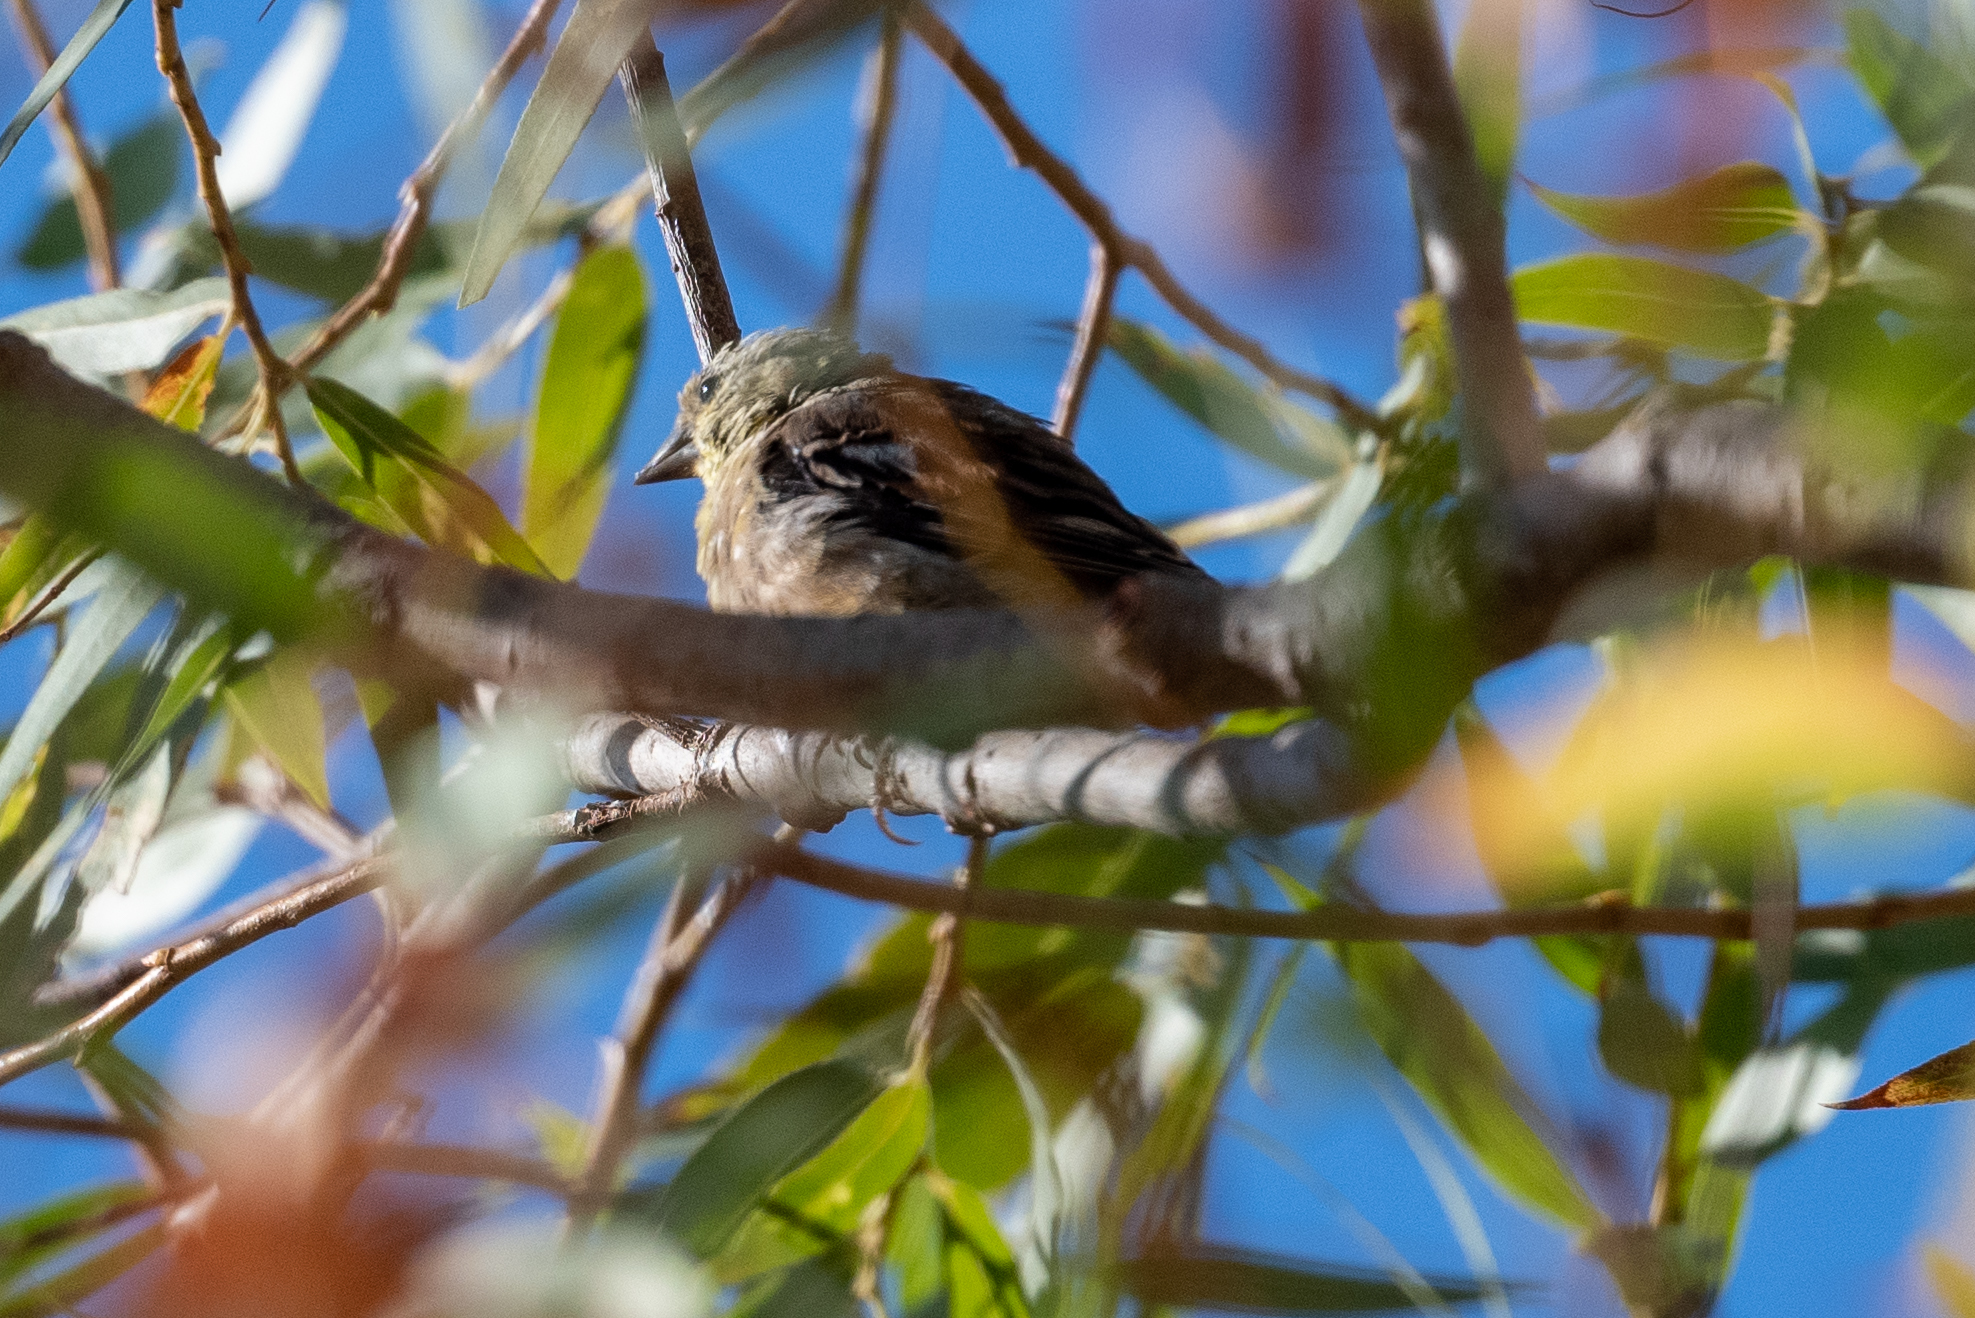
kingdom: Animalia
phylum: Chordata
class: Aves
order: Passeriformes
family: Fringillidae
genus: Spinus
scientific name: Spinus tristis
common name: American goldfinch
